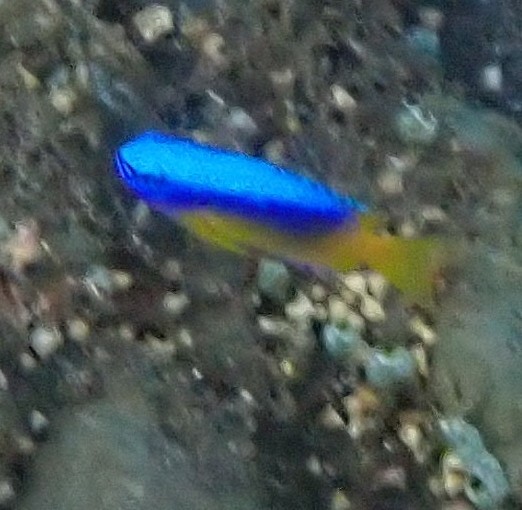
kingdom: Animalia
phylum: Chordata
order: Perciformes
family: Pomacentridae
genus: Pomacentrus
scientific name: Pomacentrus auriventris
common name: Goldbelly damsel
